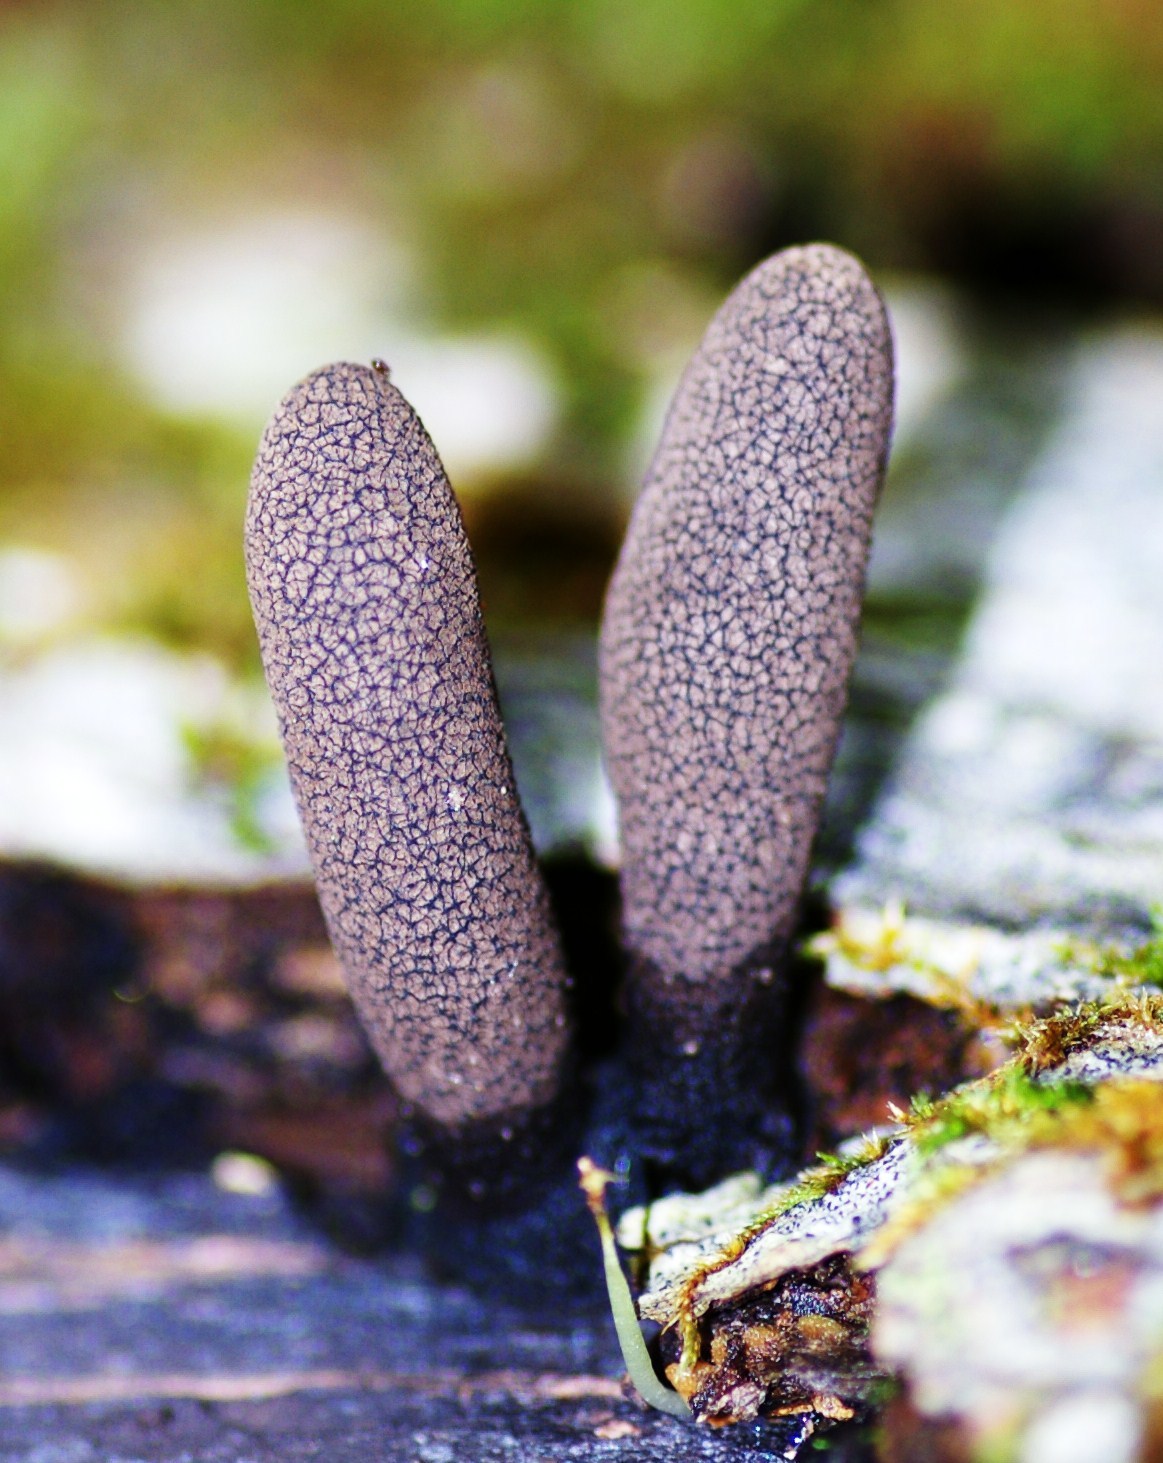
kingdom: Fungi
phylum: Ascomycota
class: Sordariomycetes
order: Xylariales
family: Xylariaceae
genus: Xylaria
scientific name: Xylaria polymorpha
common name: Dead man's fingers
